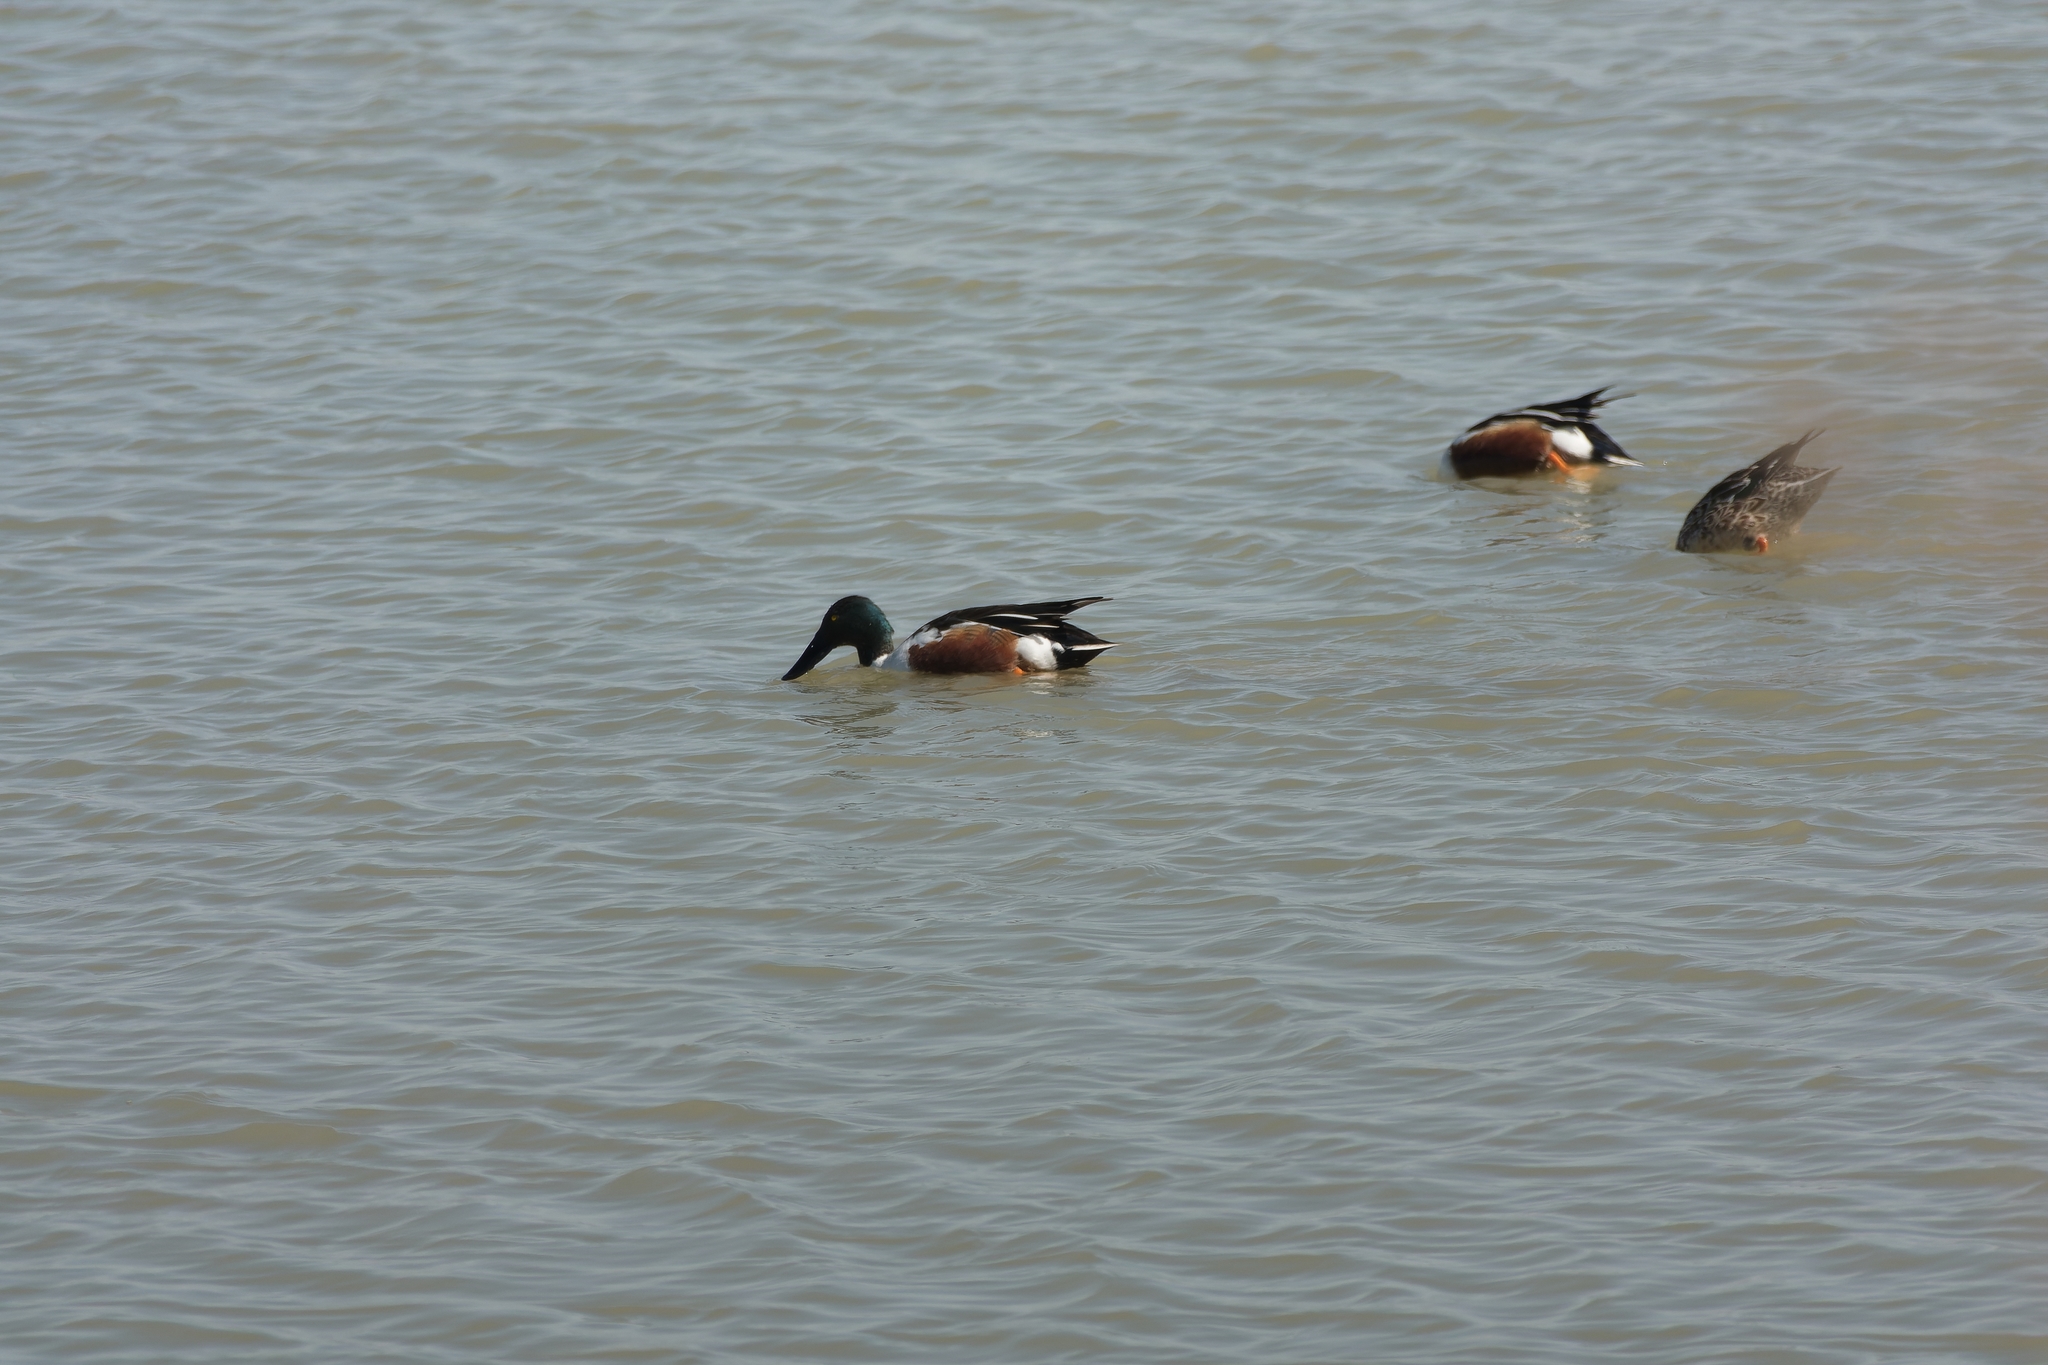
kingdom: Animalia
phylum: Chordata
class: Aves
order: Anseriformes
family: Anatidae
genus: Spatula
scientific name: Spatula clypeata
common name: Northern shoveler
